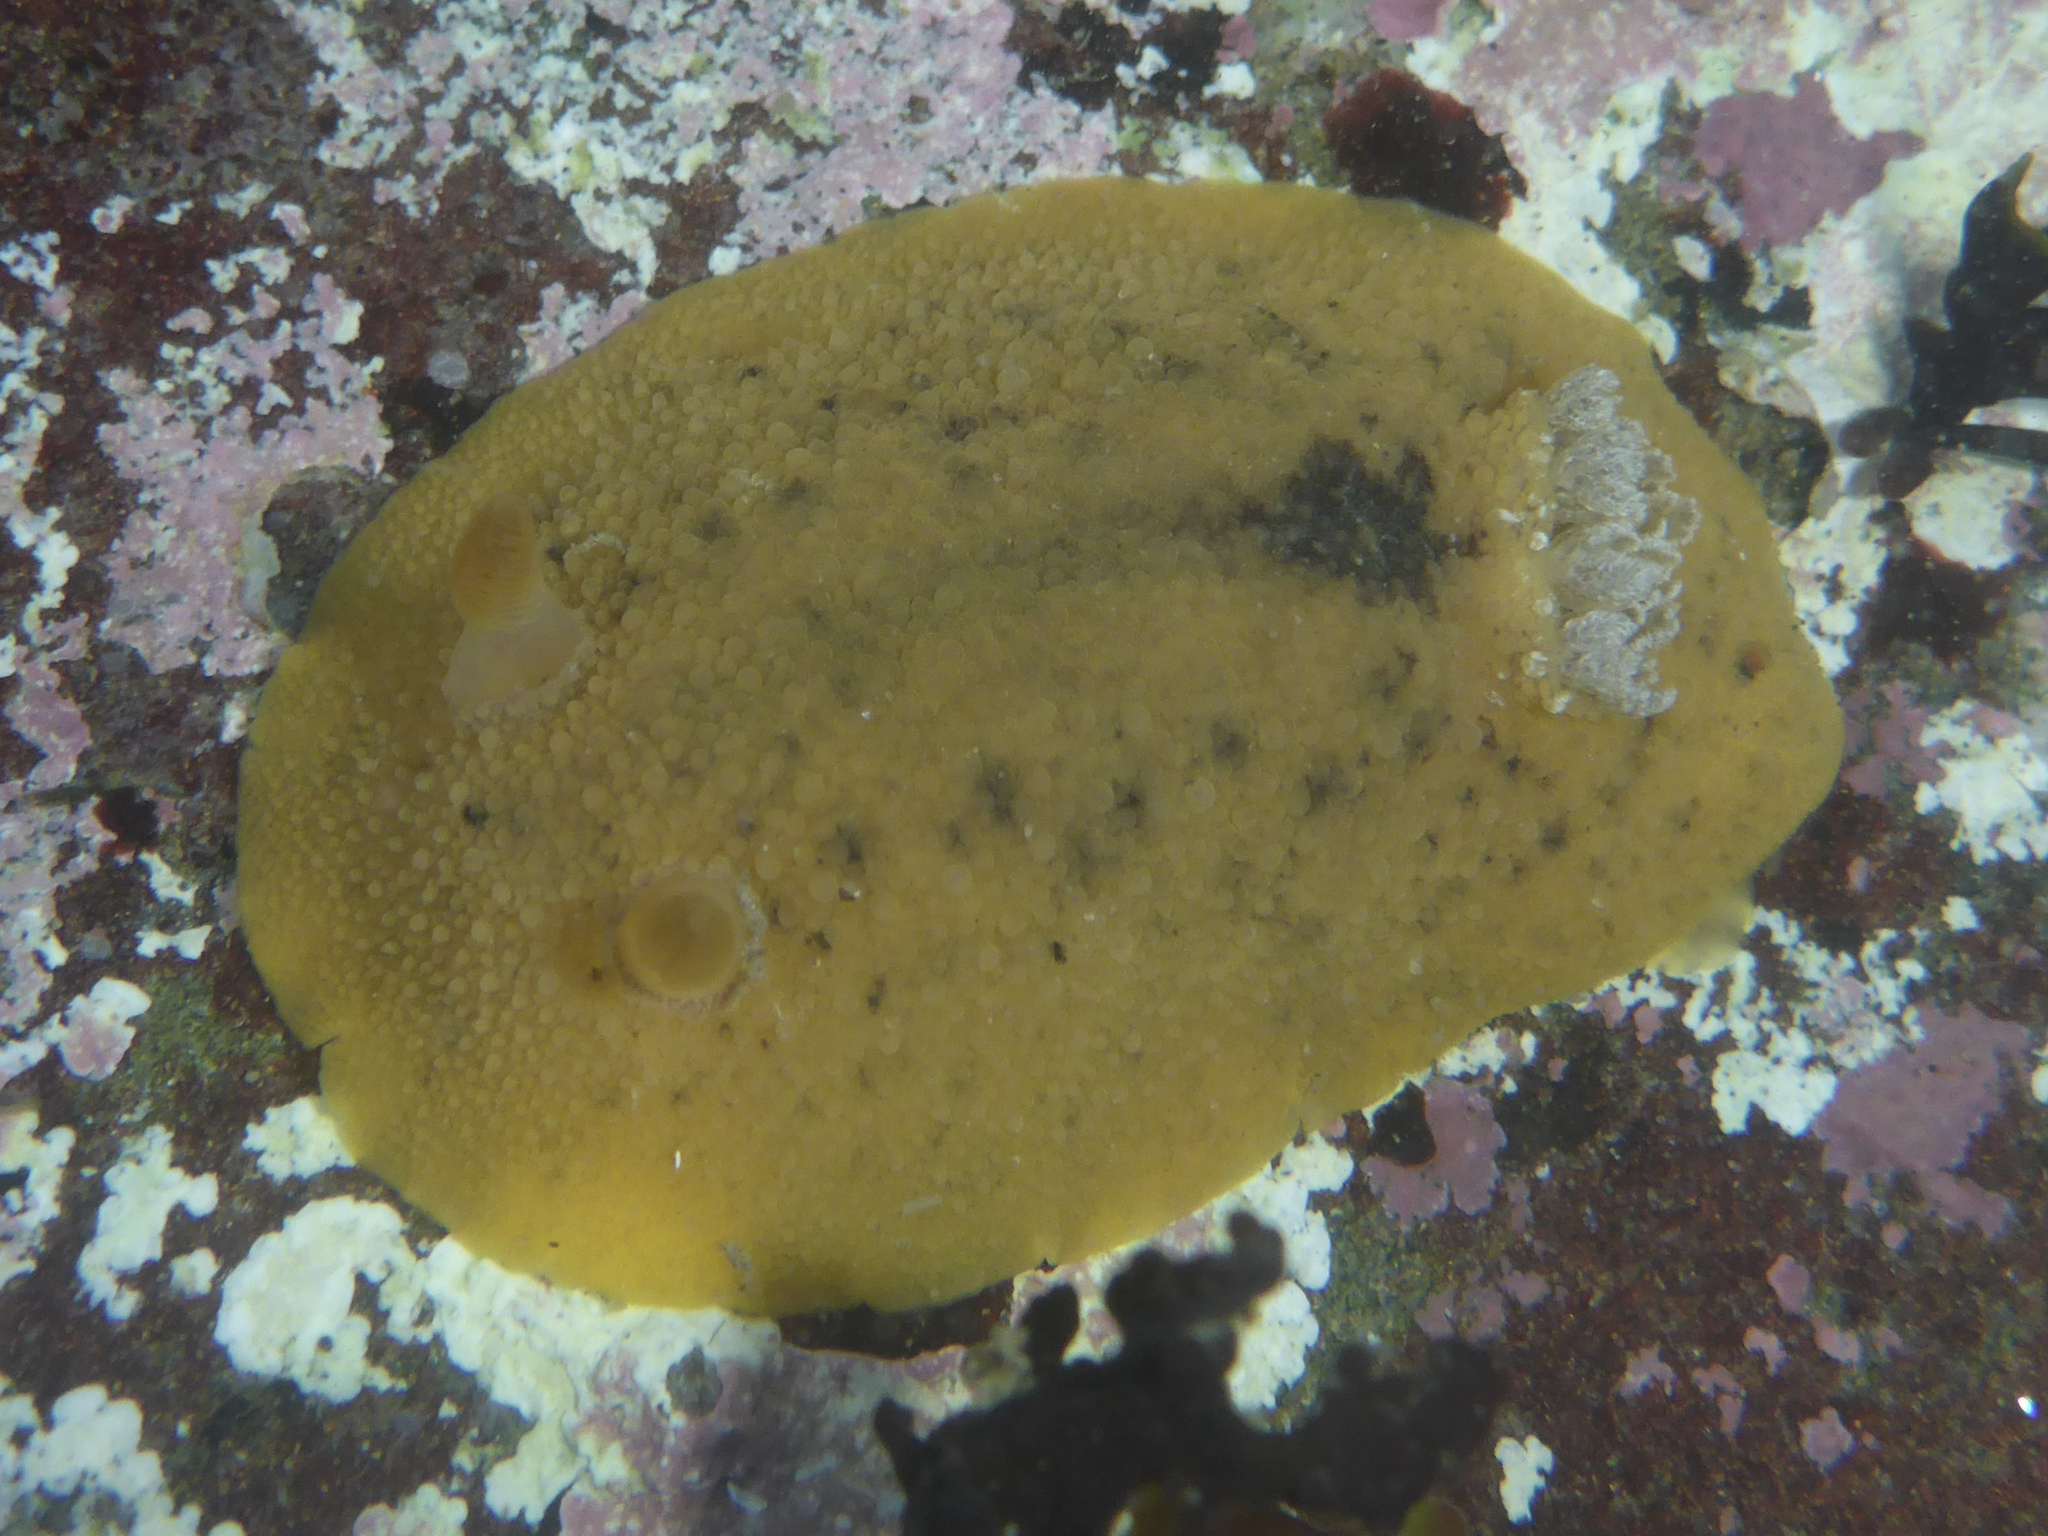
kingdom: Animalia
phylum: Mollusca
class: Gastropoda
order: Nudibranchia
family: Discodorididae
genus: Geitodoris
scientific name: Geitodoris heathi
